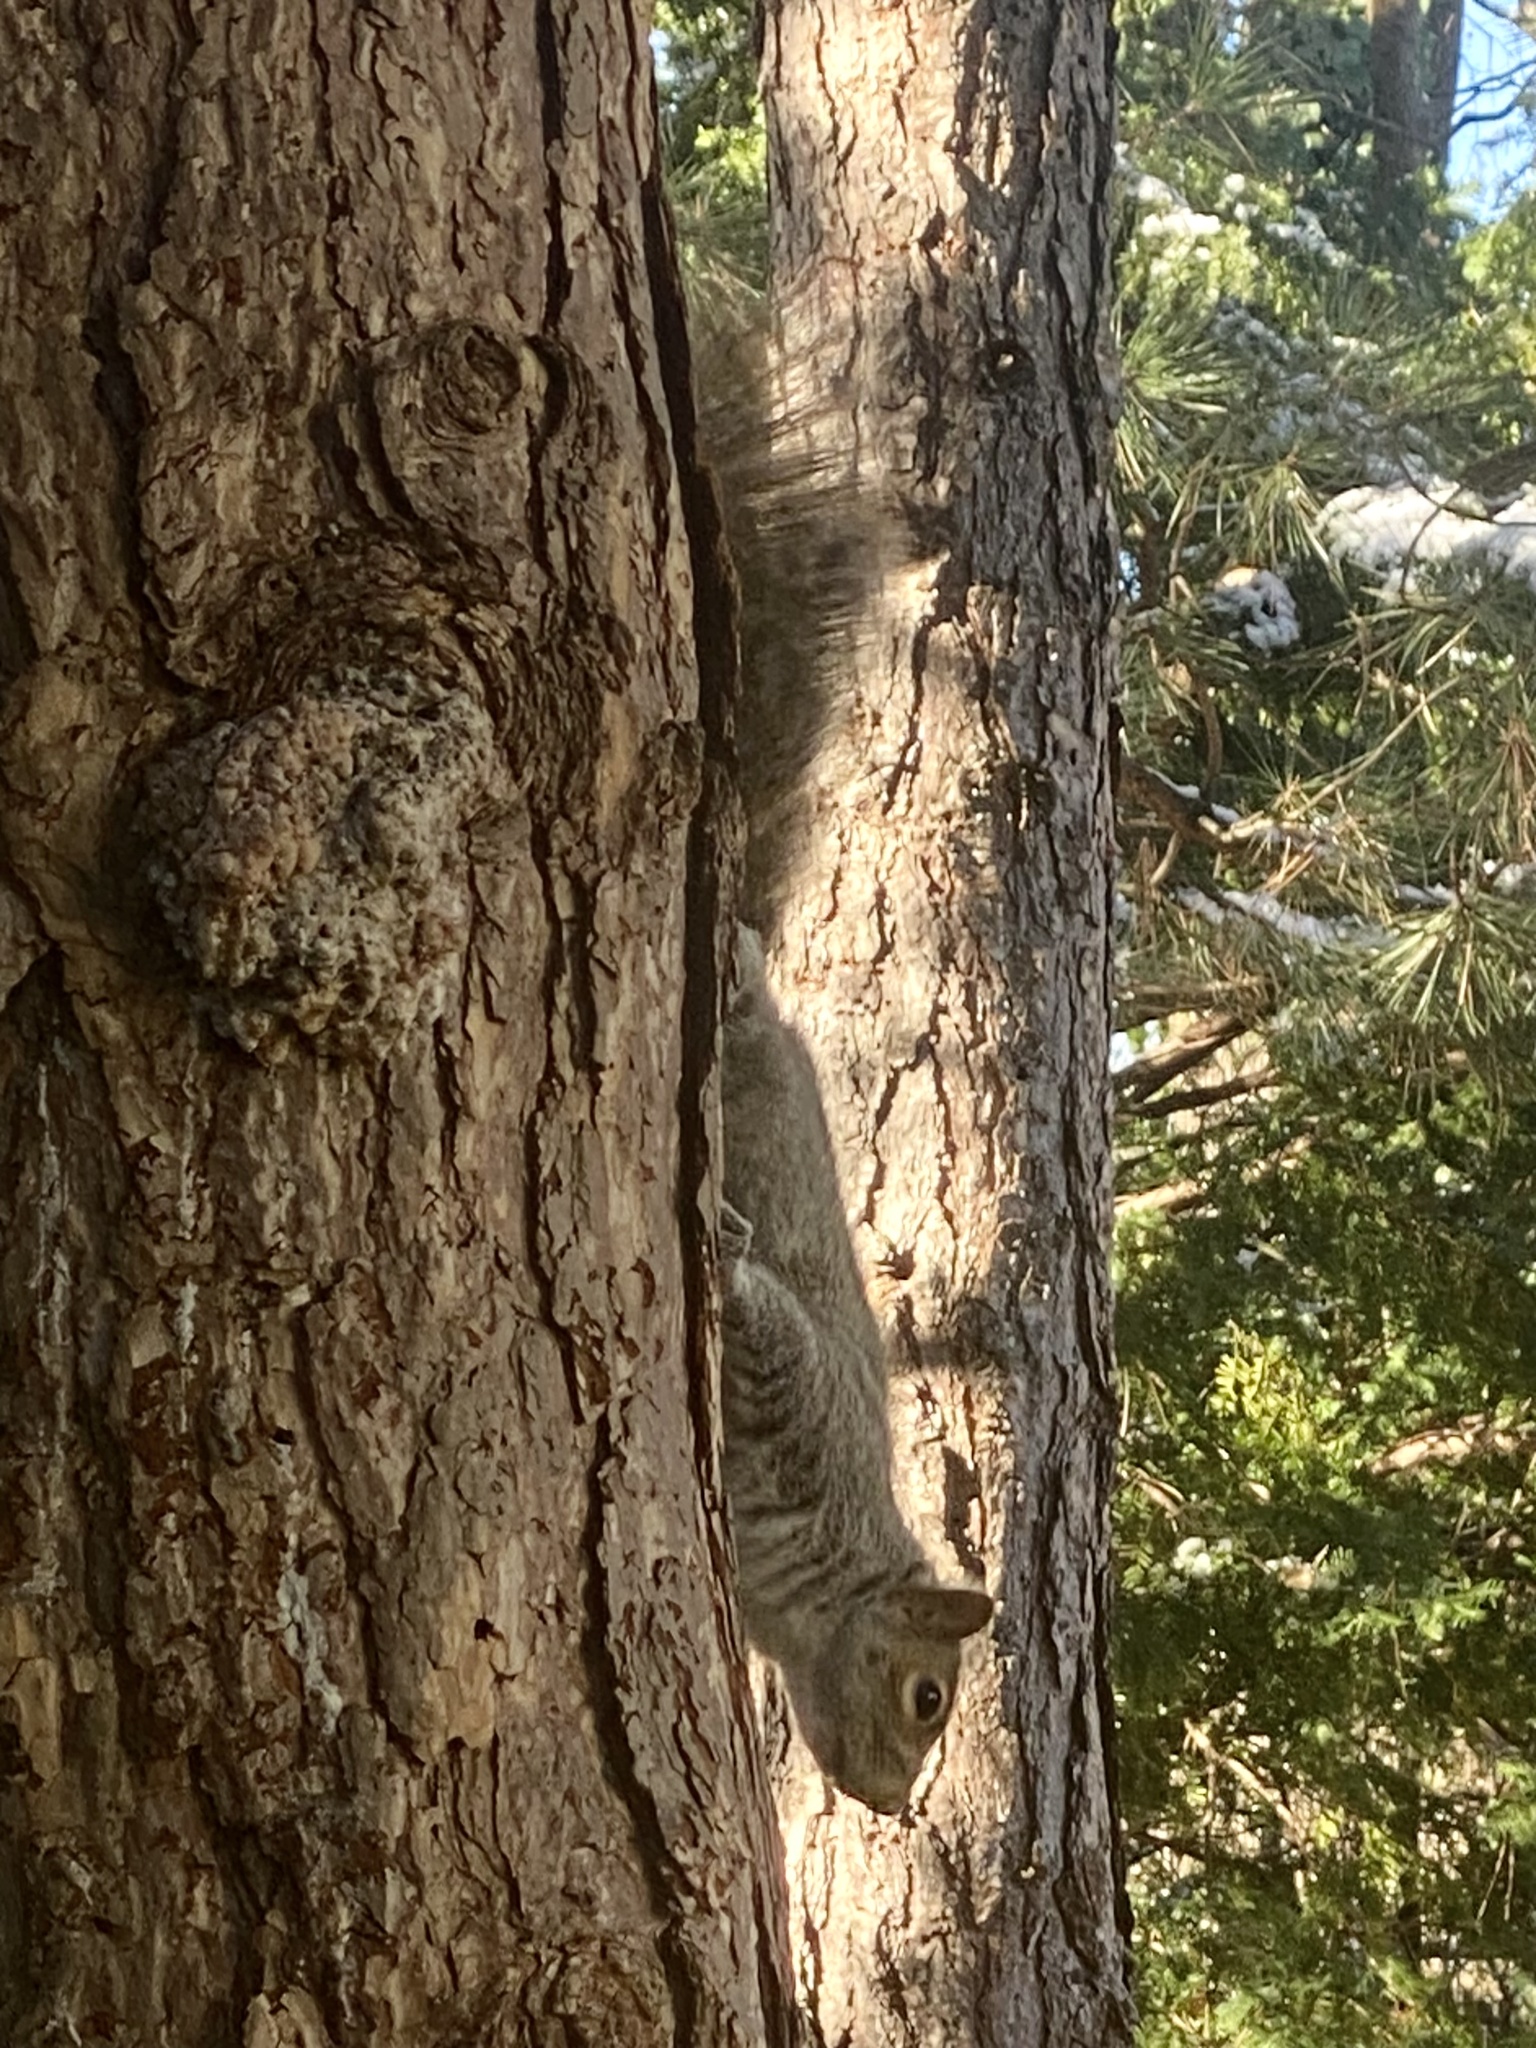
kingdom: Animalia
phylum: Chordata
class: Mammalia
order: Rodentia
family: Sciuridae
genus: Sciurus
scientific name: Sciurus carolinensis
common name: Eastern gray squirrel
